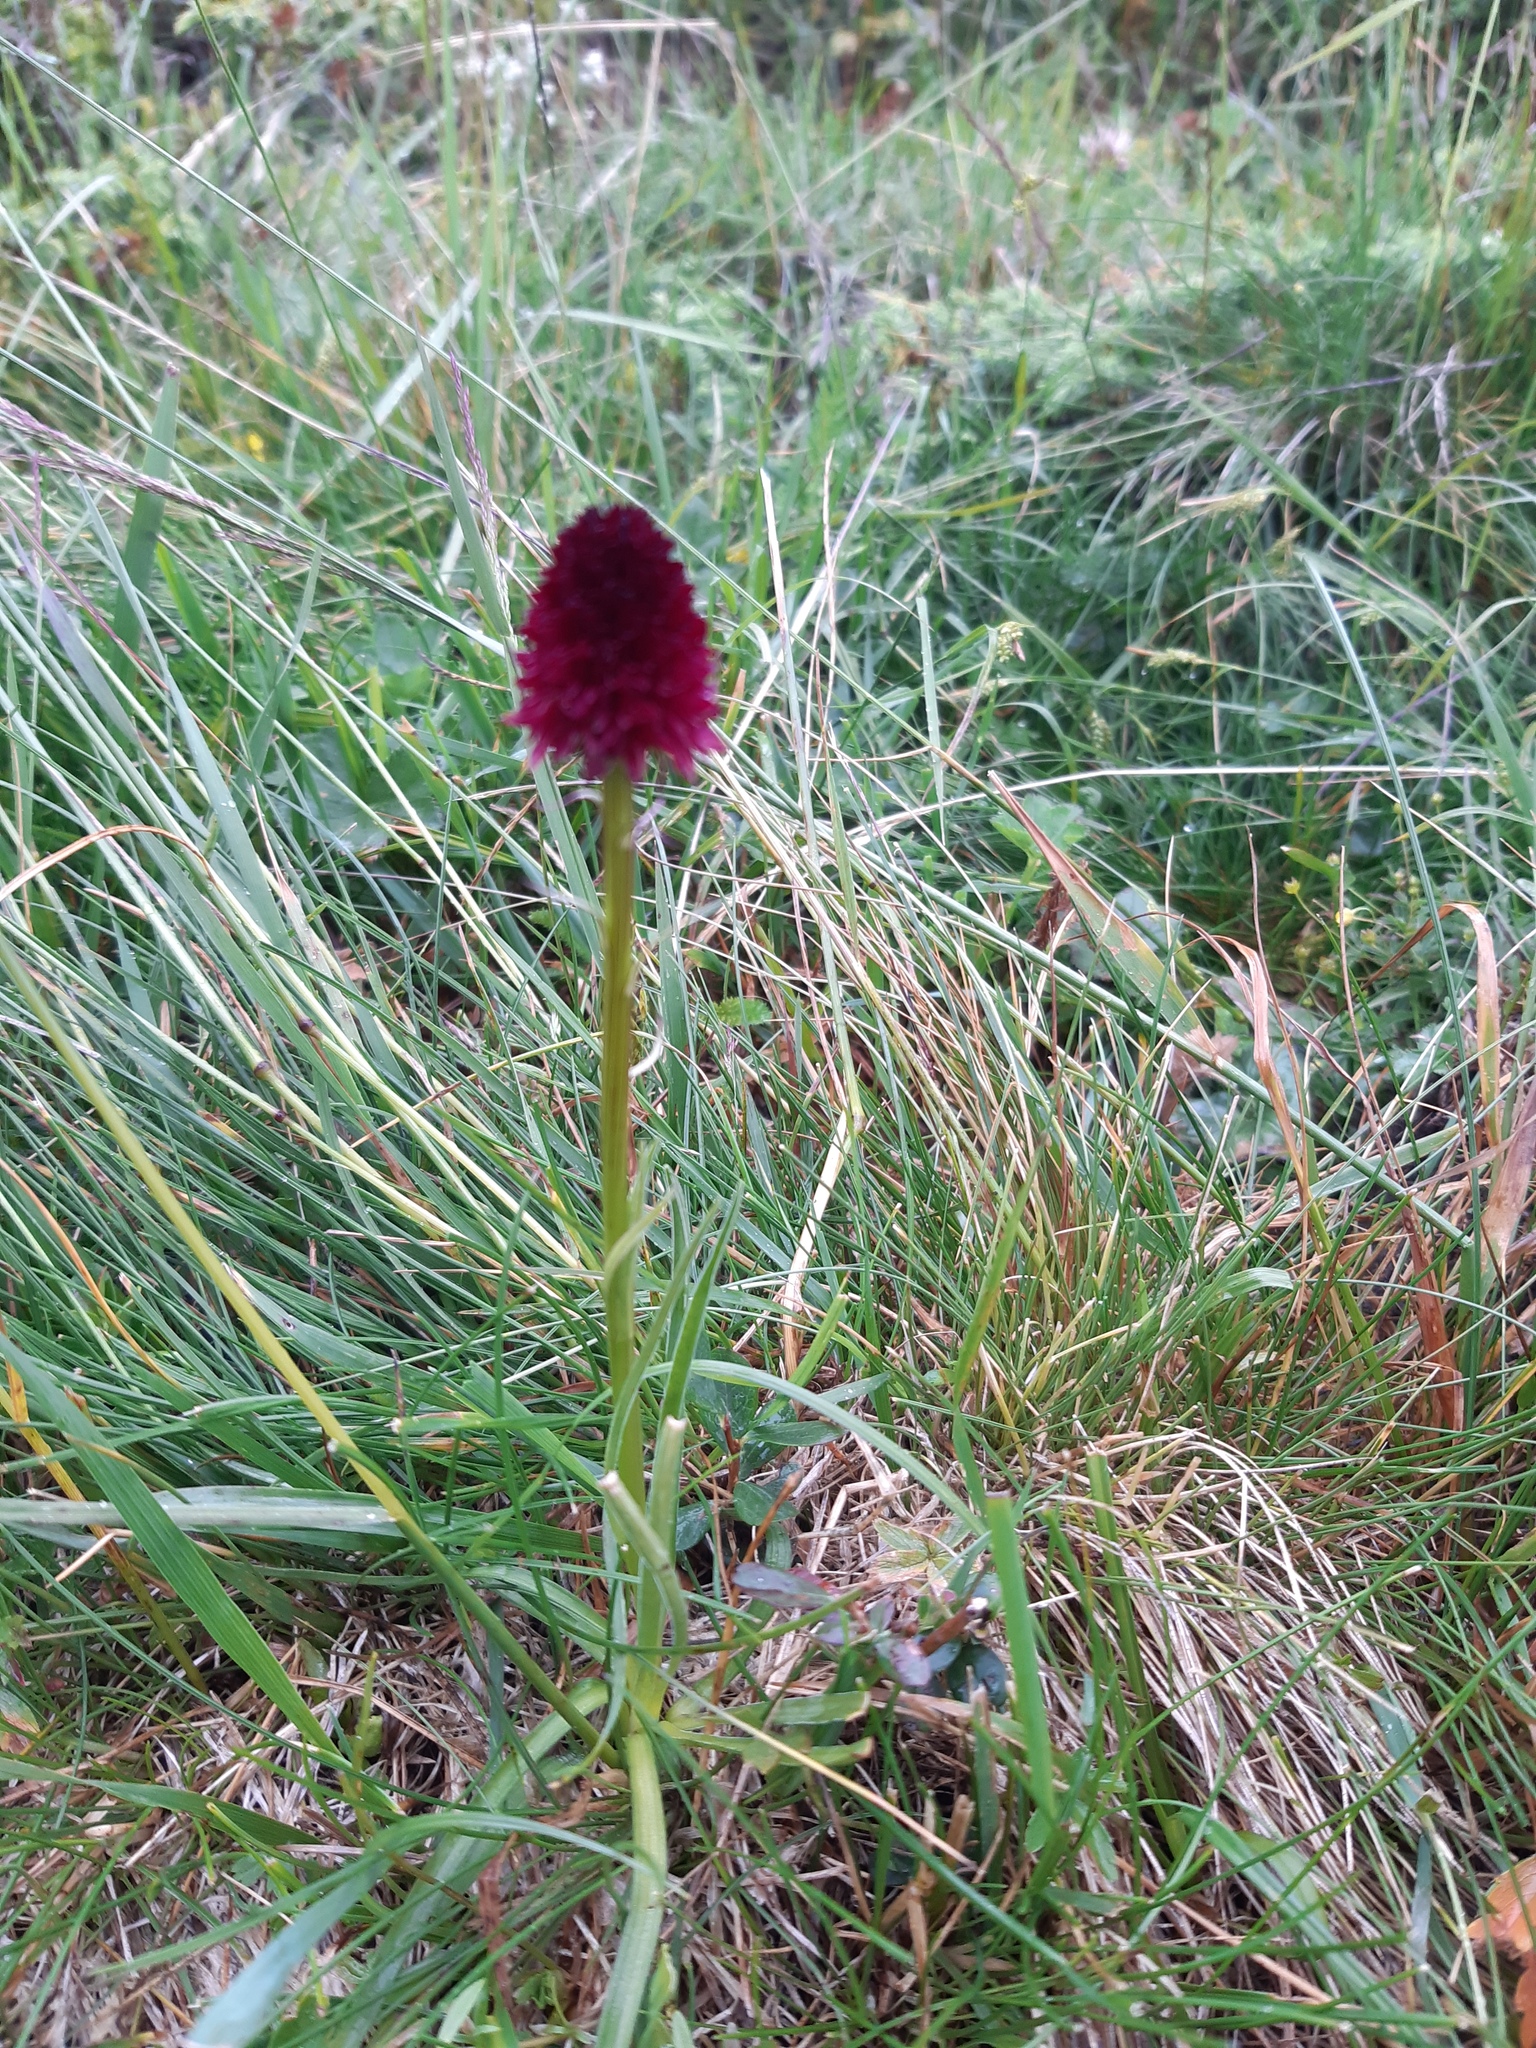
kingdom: Plantae
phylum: Tracheophyta
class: Liliopsida
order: Asparagales
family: Orchidaceae
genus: Gymnadenia
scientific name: Gymnadenia rhellicani
